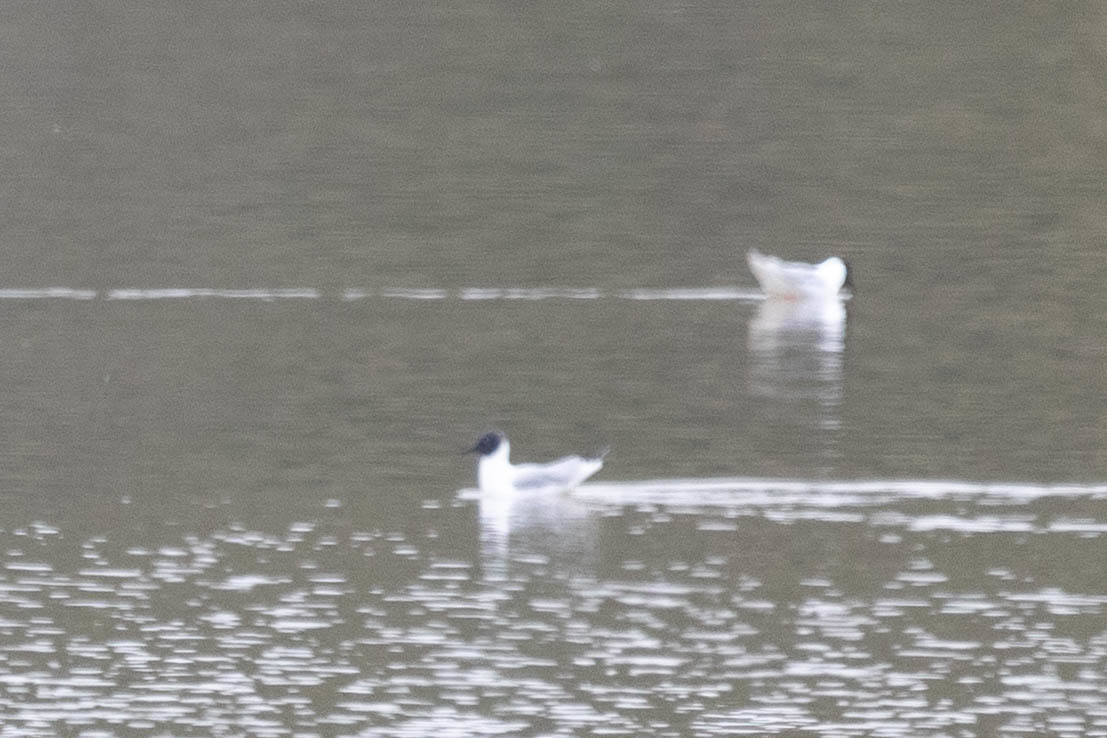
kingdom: Animalia
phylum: Chordata
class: Aves
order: Charadriiformes
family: Laridae
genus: Chroicocephalus
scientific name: Chroicocephalus philadelphia
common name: Bonaparte's gull
